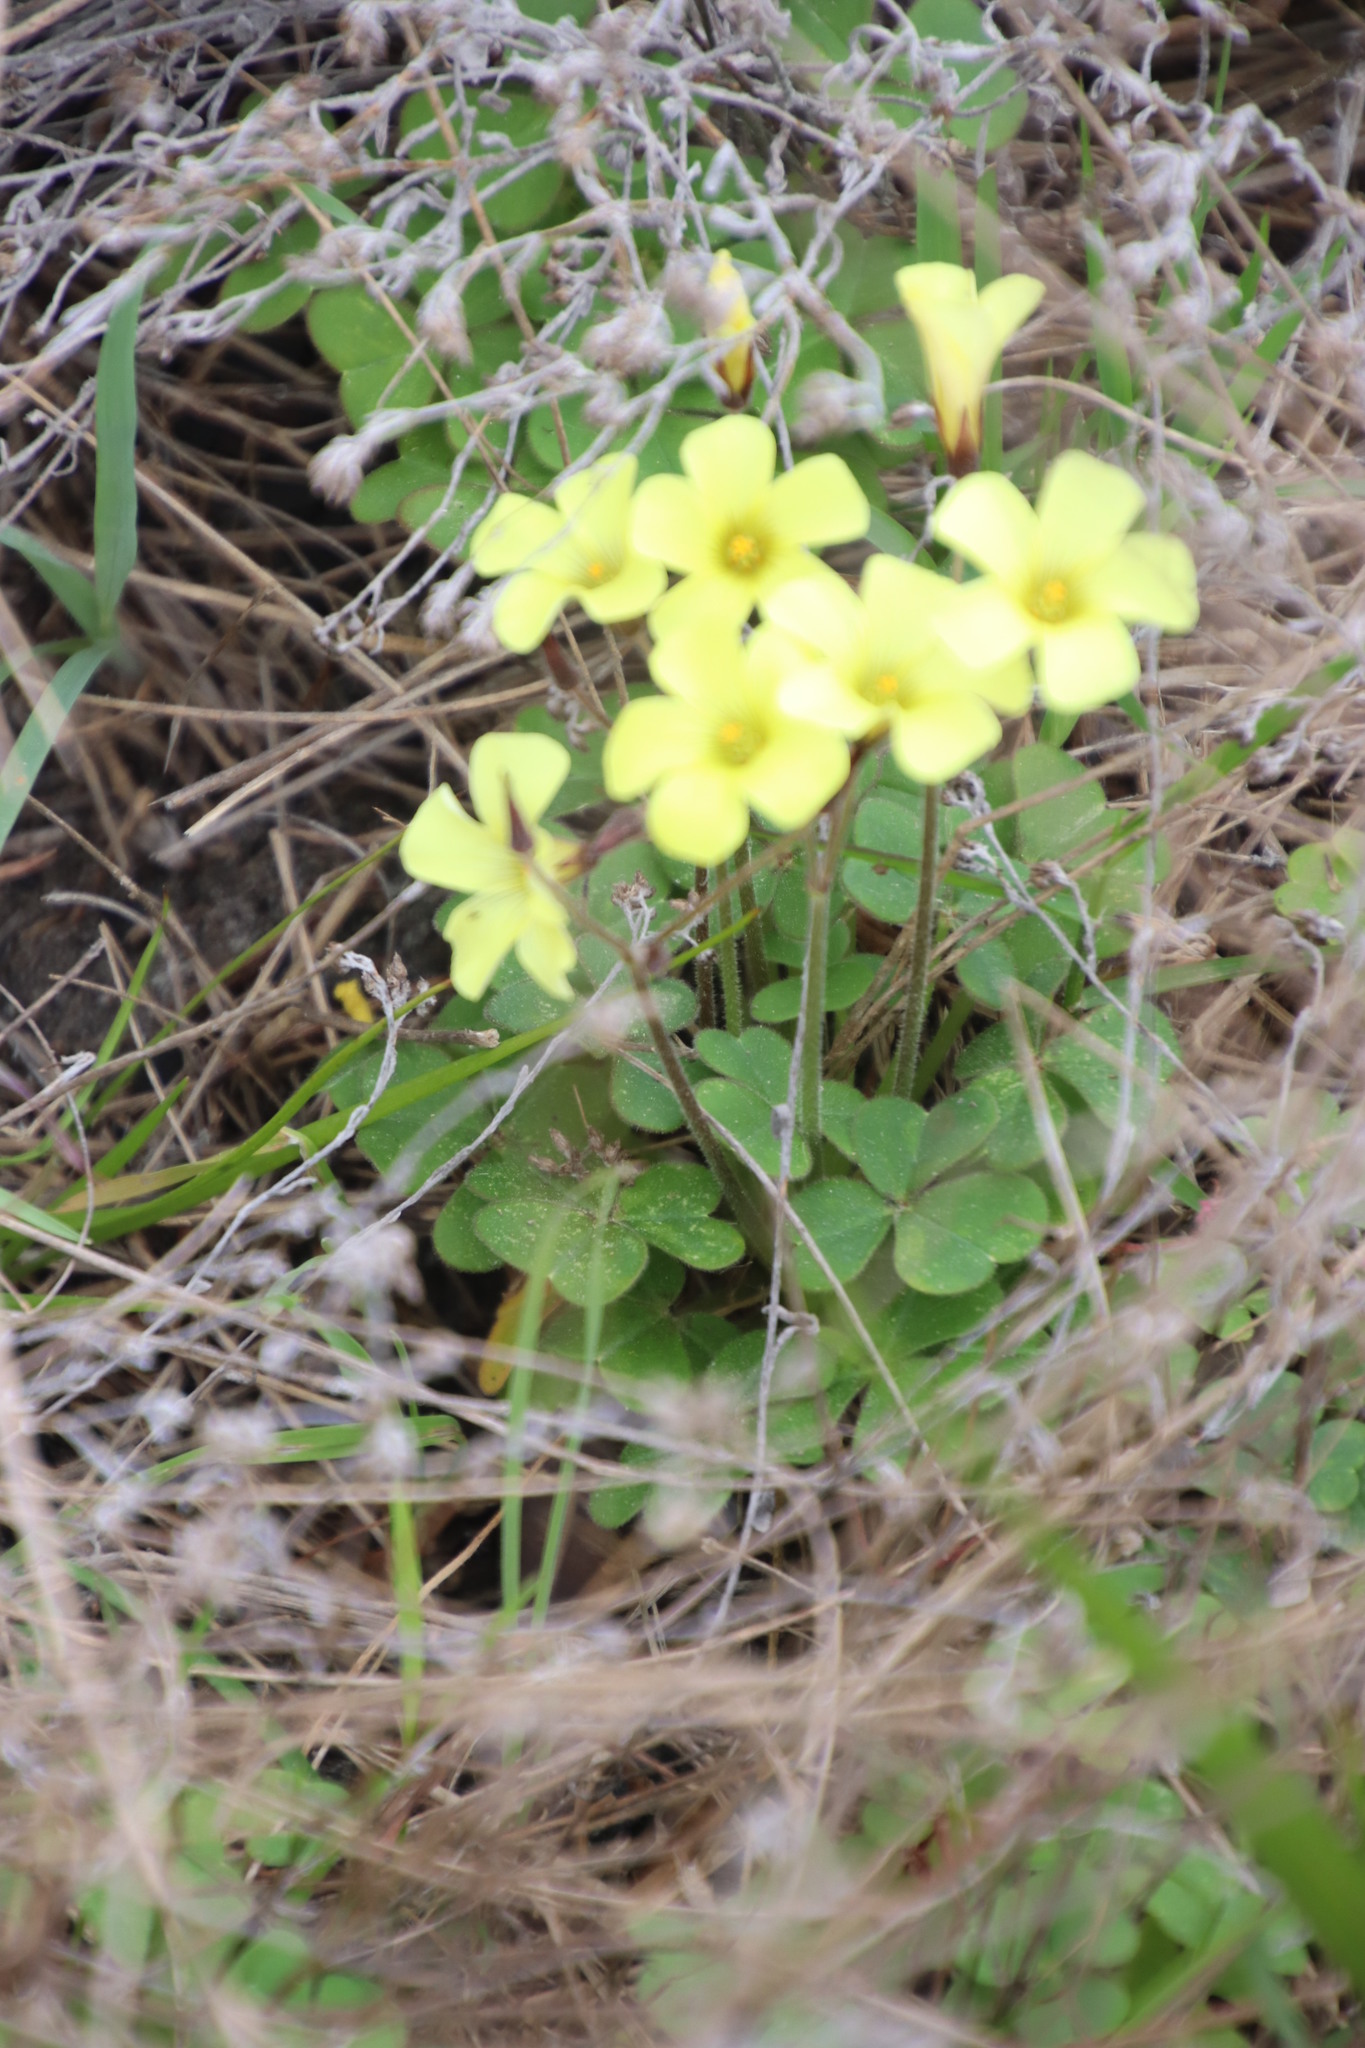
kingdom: Plantae
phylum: Tracheophyta
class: Magnoliopsida
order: Oxalidales
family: Oxalidaceae
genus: Oxalis
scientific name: Oxalis pes-caprae
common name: Bermuda-buttercup
